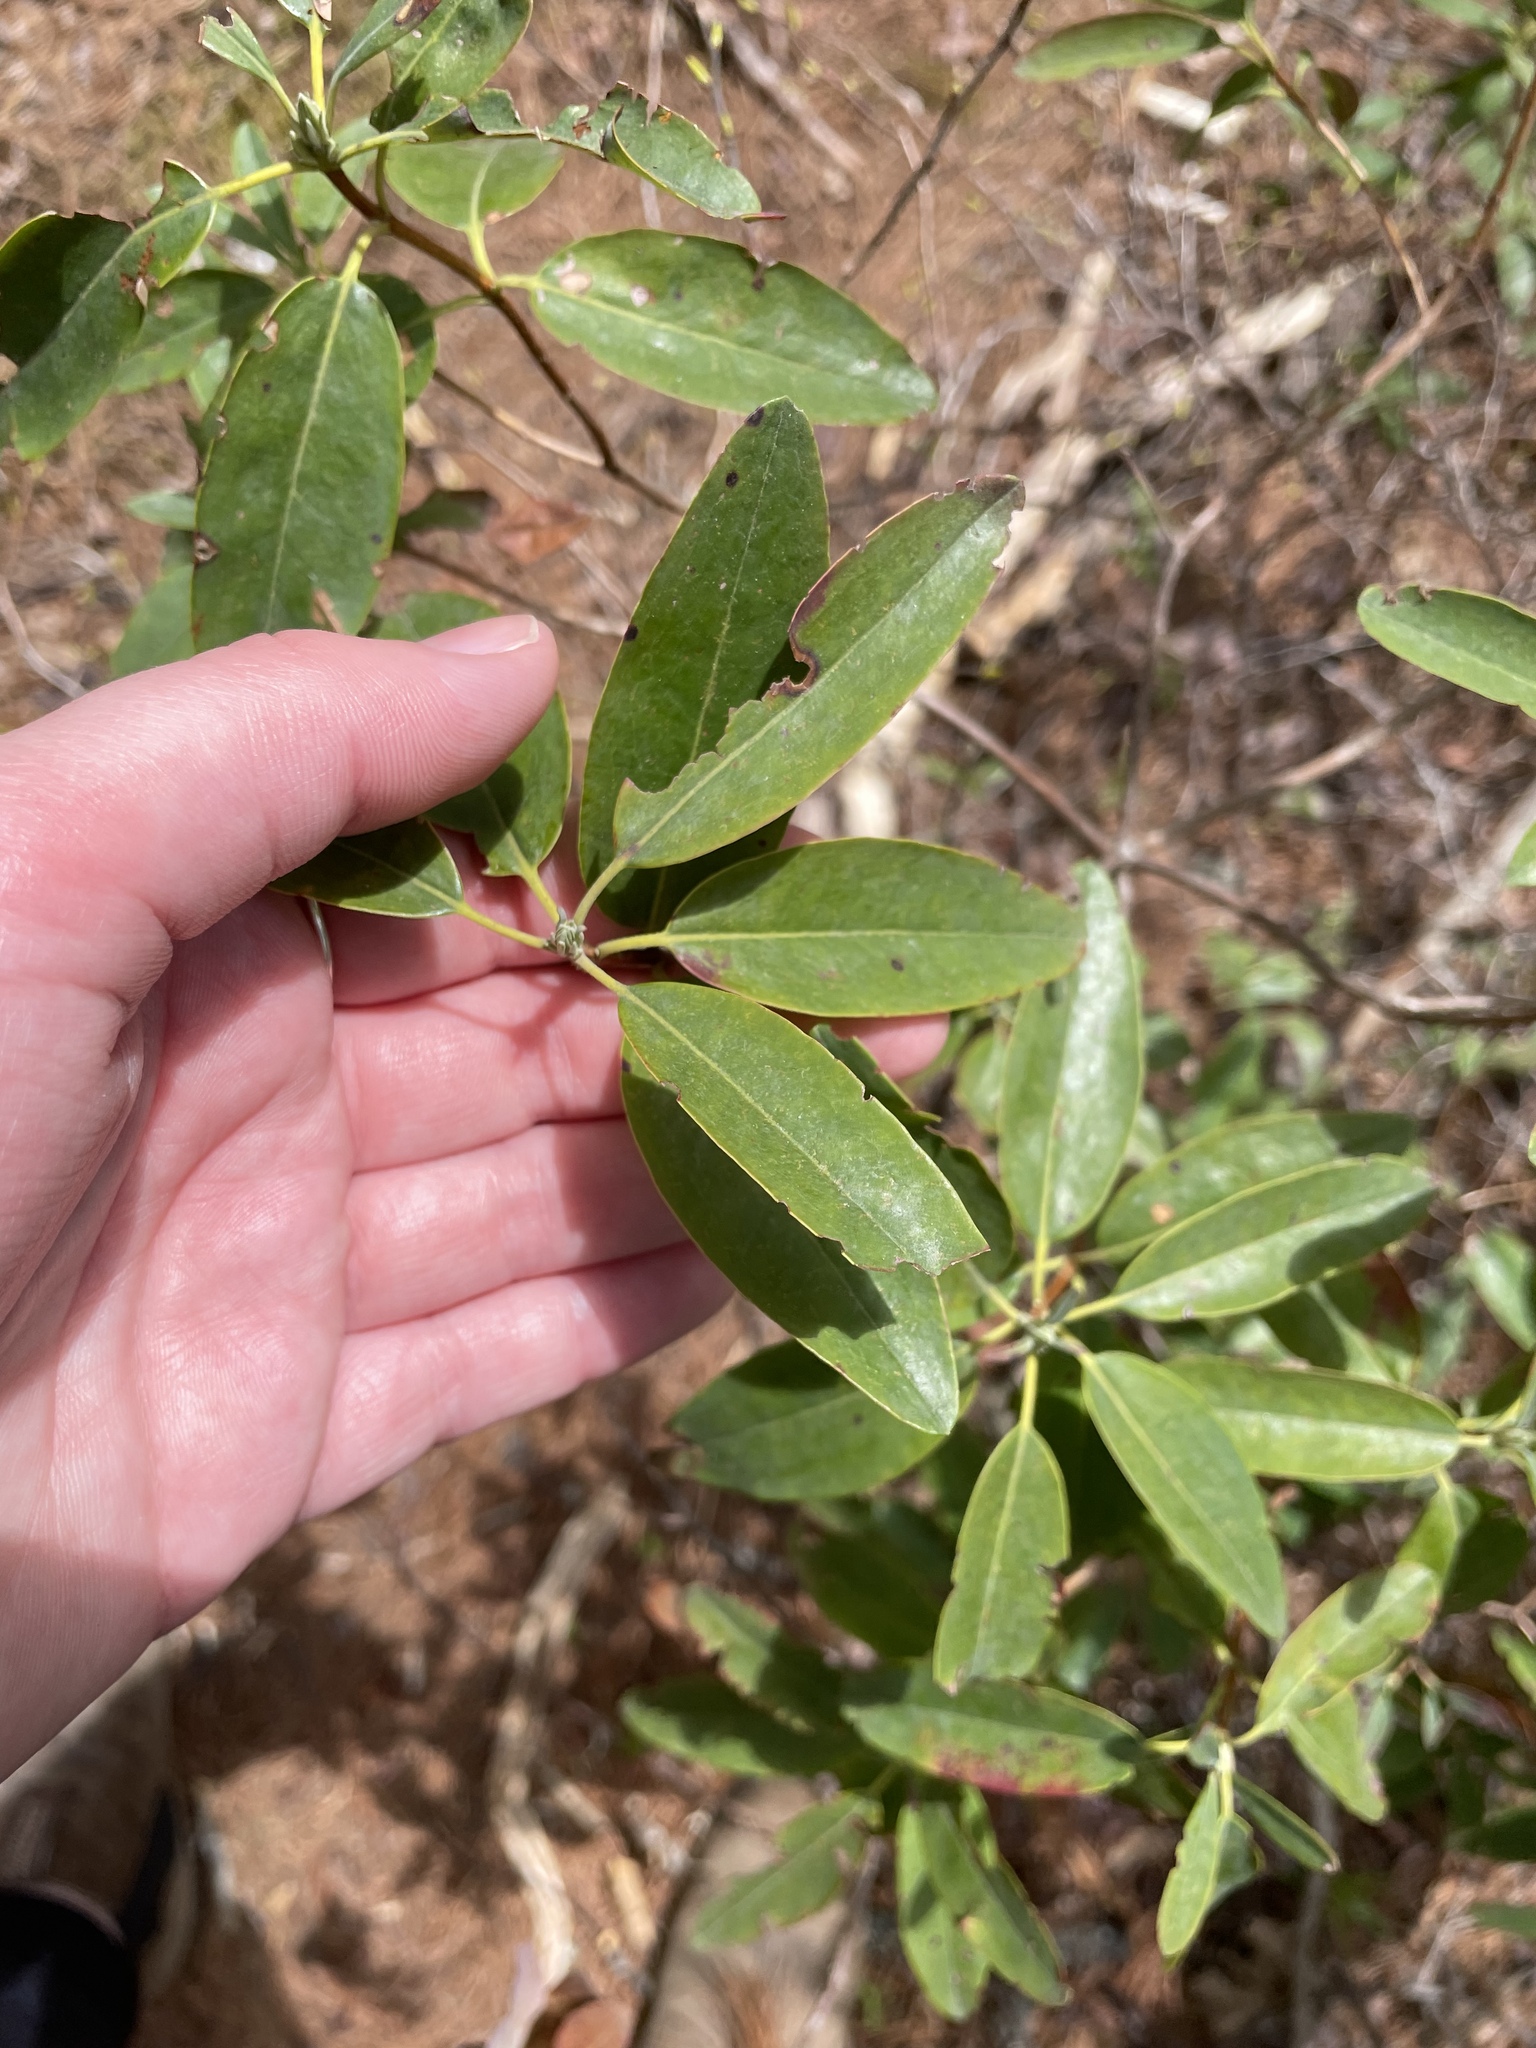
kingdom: Plantae
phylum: Tracheophyta
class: Magnoliopsida
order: Ericales
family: Ericaceae
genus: Kalmia
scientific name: Kalmia angustifolia
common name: Sheep-laurel
